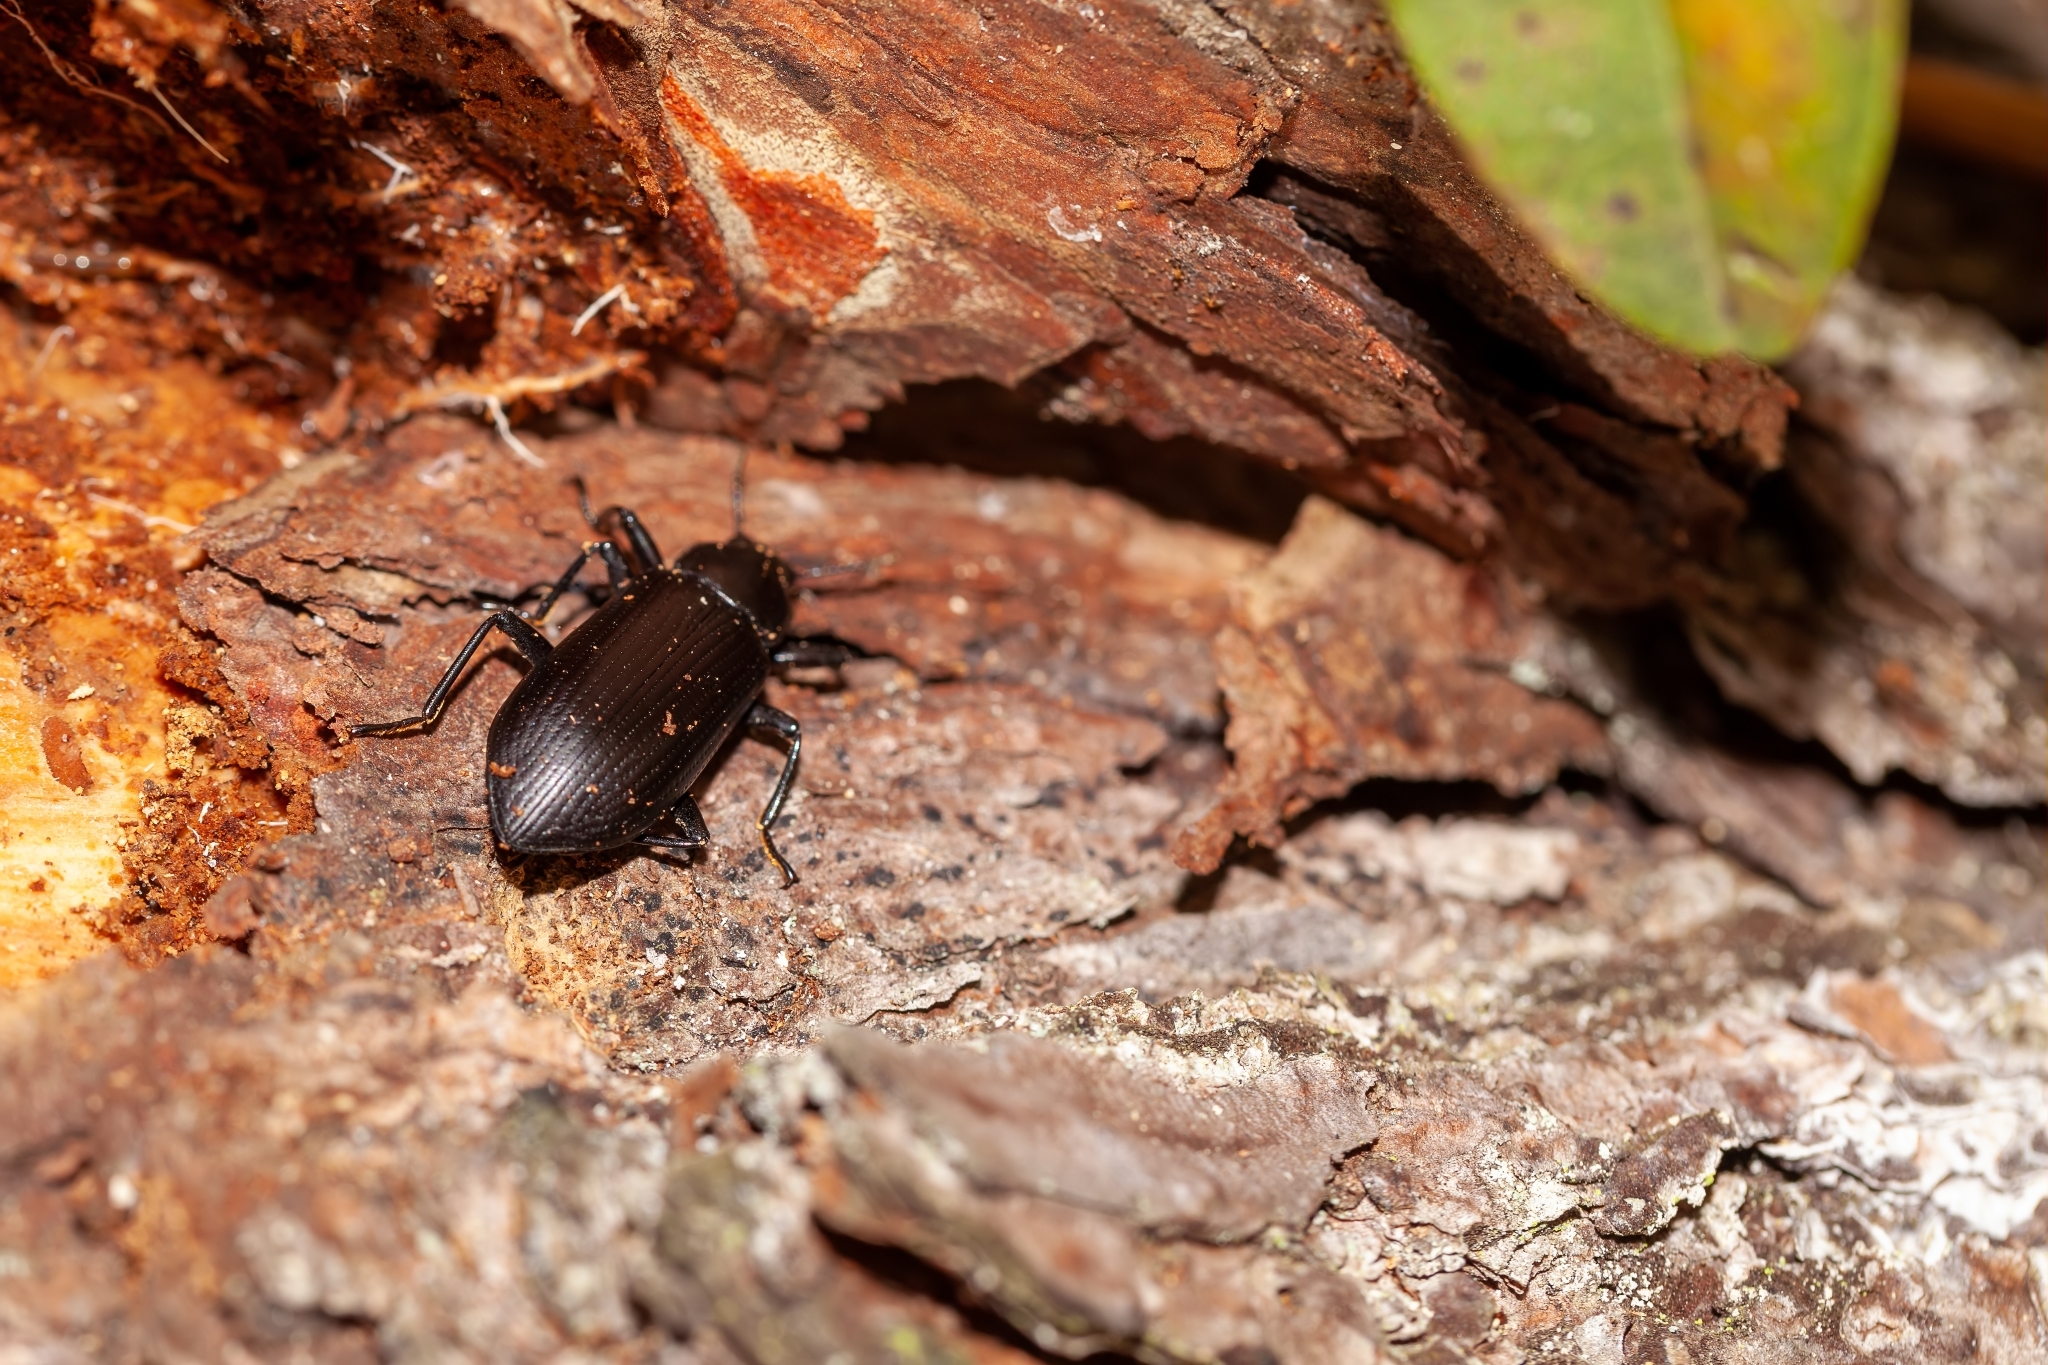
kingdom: Animalia
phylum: Arthropoda
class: Insecta
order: Coleoptera
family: Tenebrionidae
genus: Alobates
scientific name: Alobates
